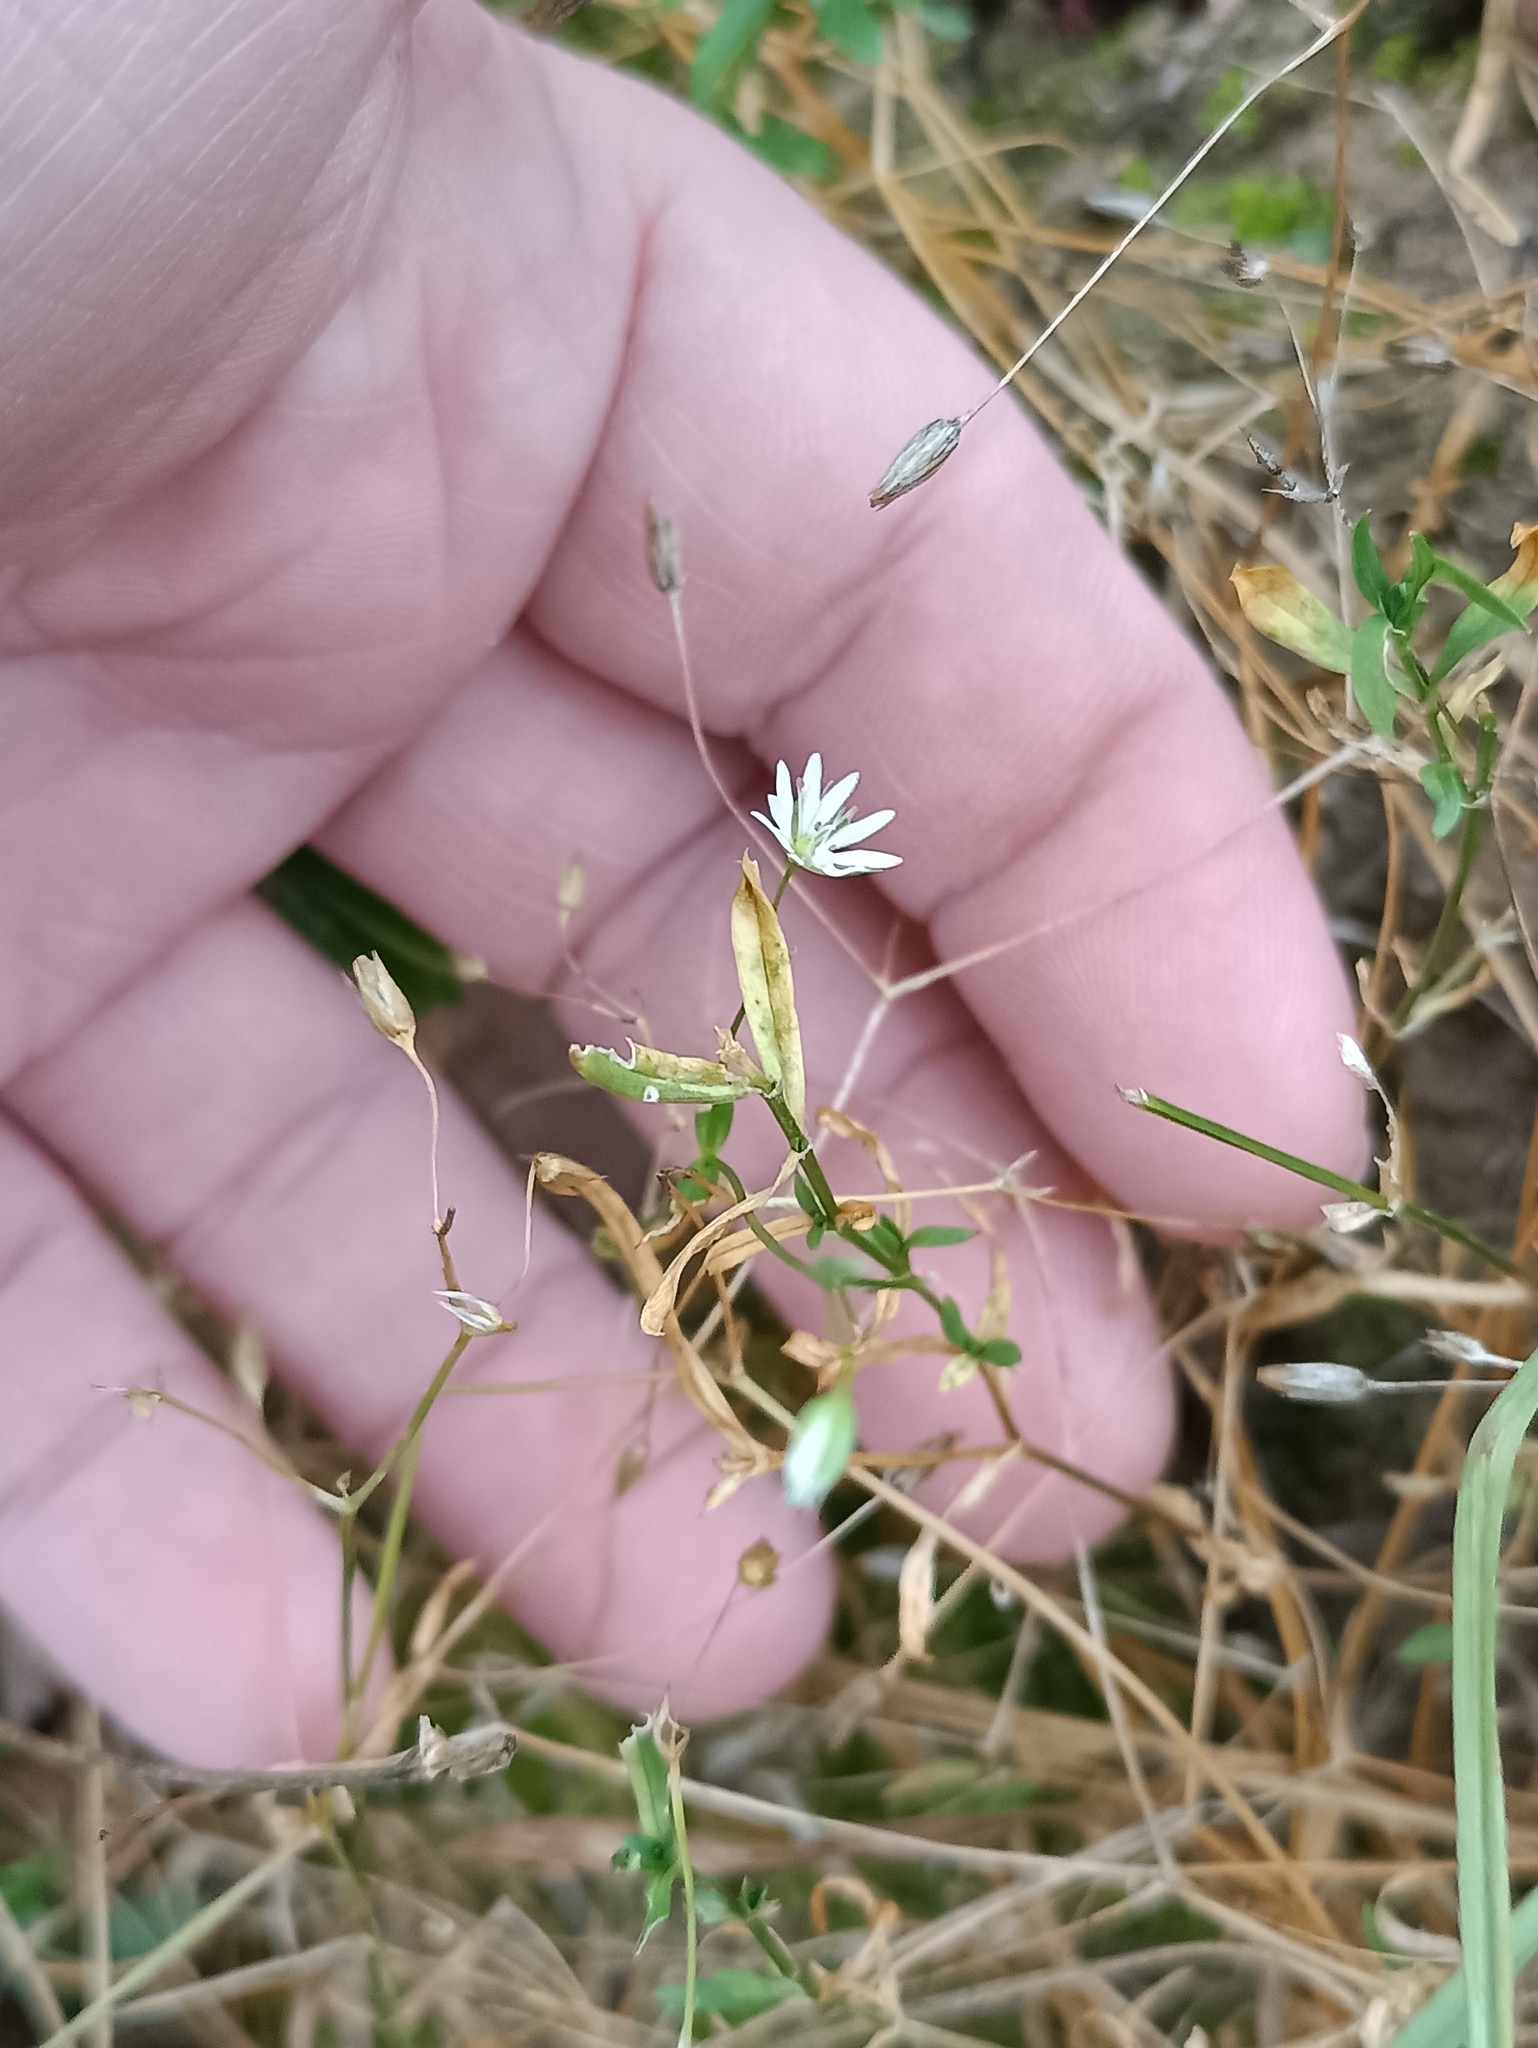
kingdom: Plantae
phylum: Tracheophyta
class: Magnoliopsida
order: Caryophyllales
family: Caryophyllaceae
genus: Stellaria
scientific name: Stellaria graminea
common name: Grass-like starwort
